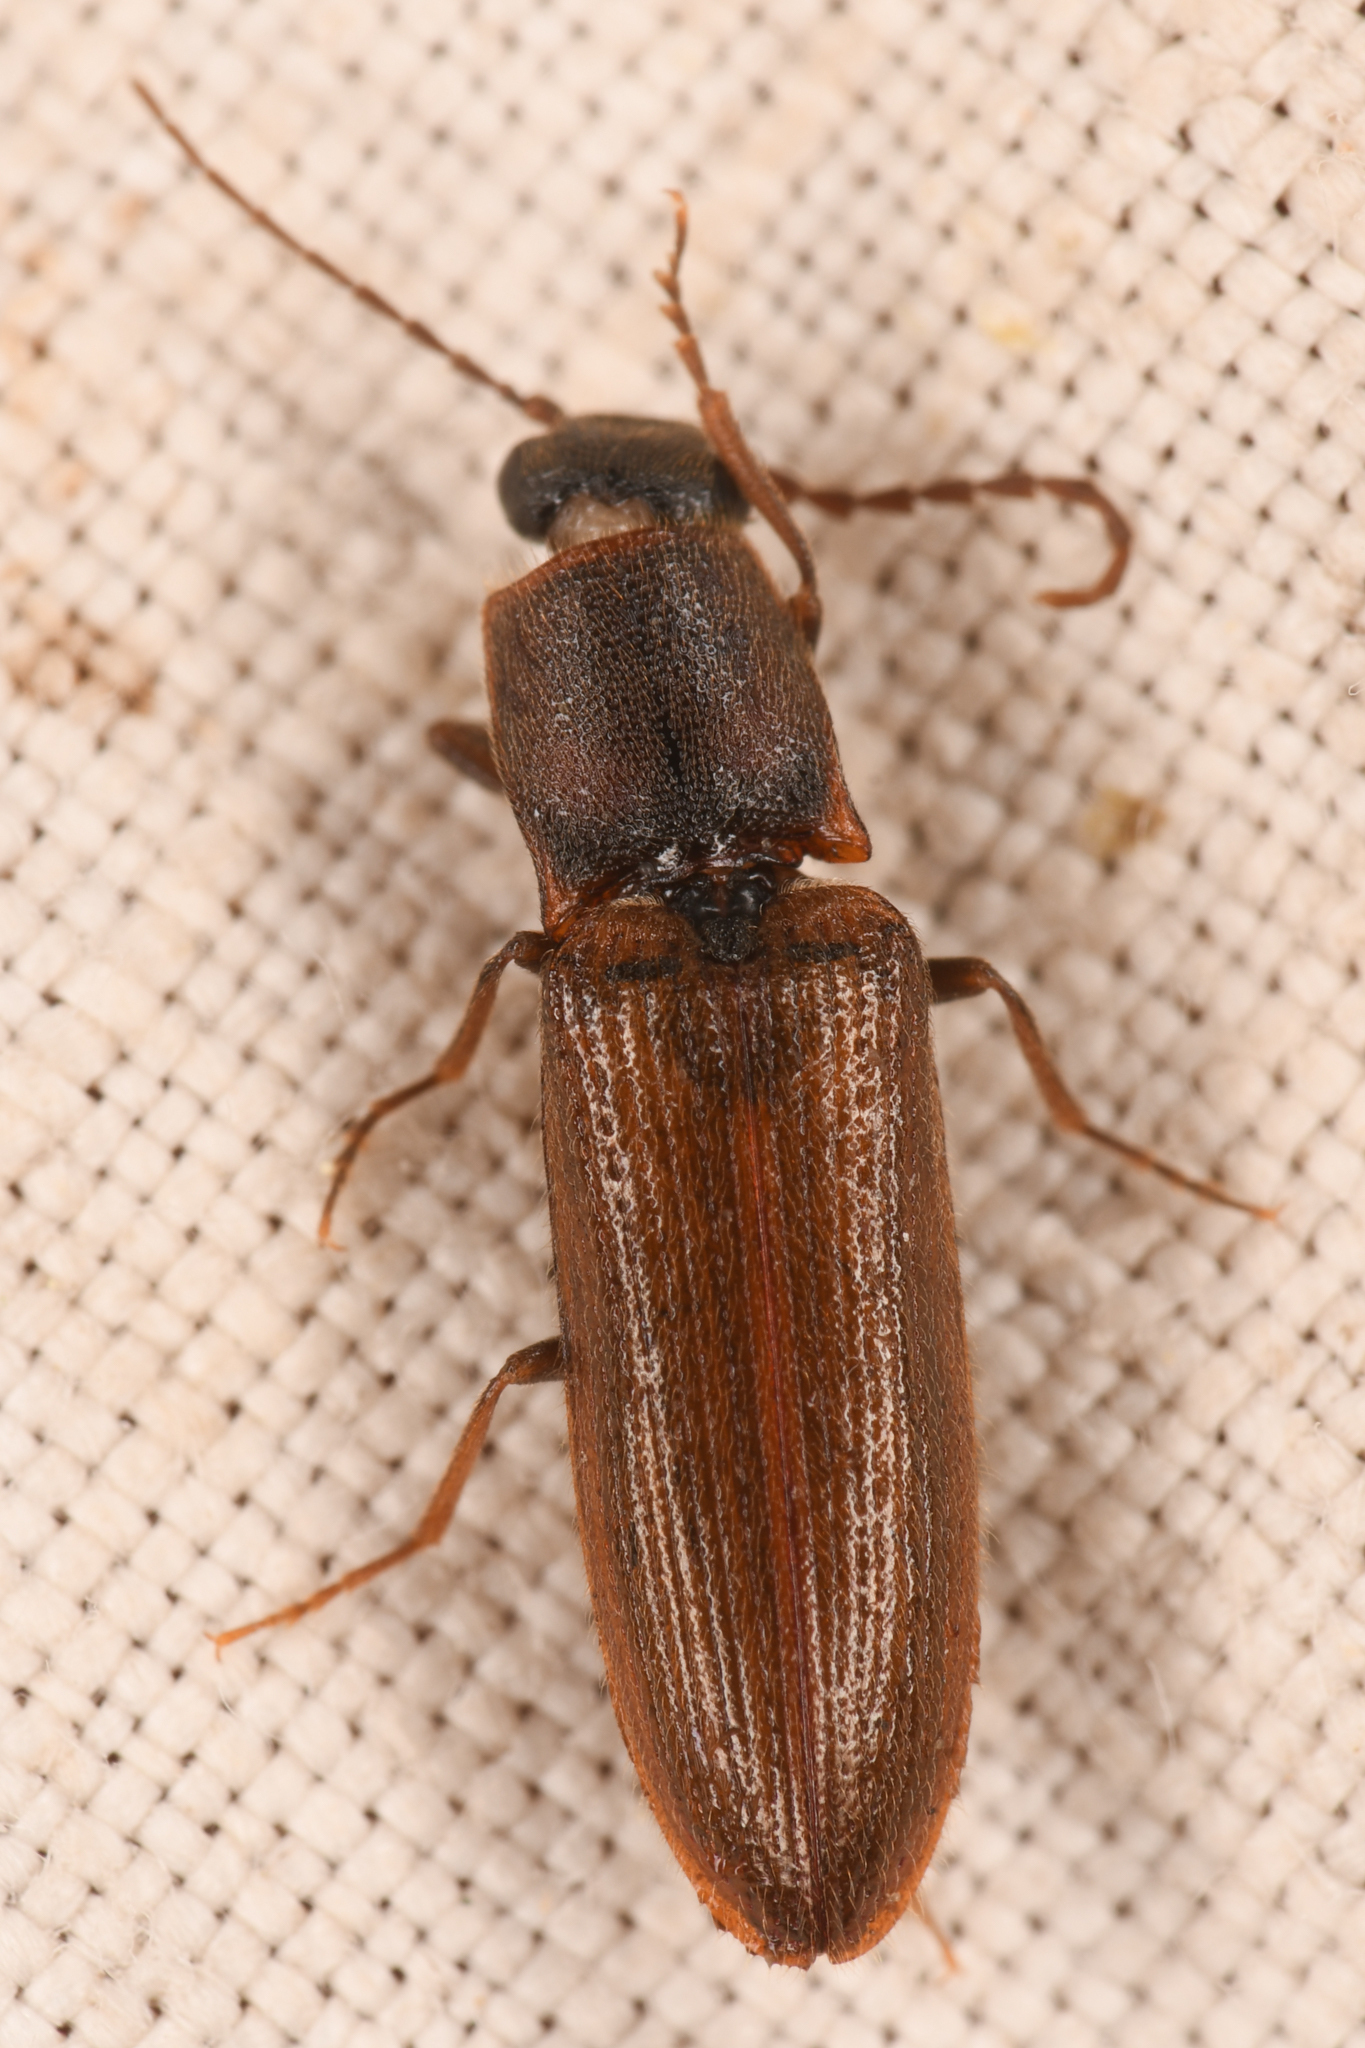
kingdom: Animalia
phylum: Arthropoda
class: Insecta
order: Coleoptera
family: Elateridae
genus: Athous
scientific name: Athous rufiventris
